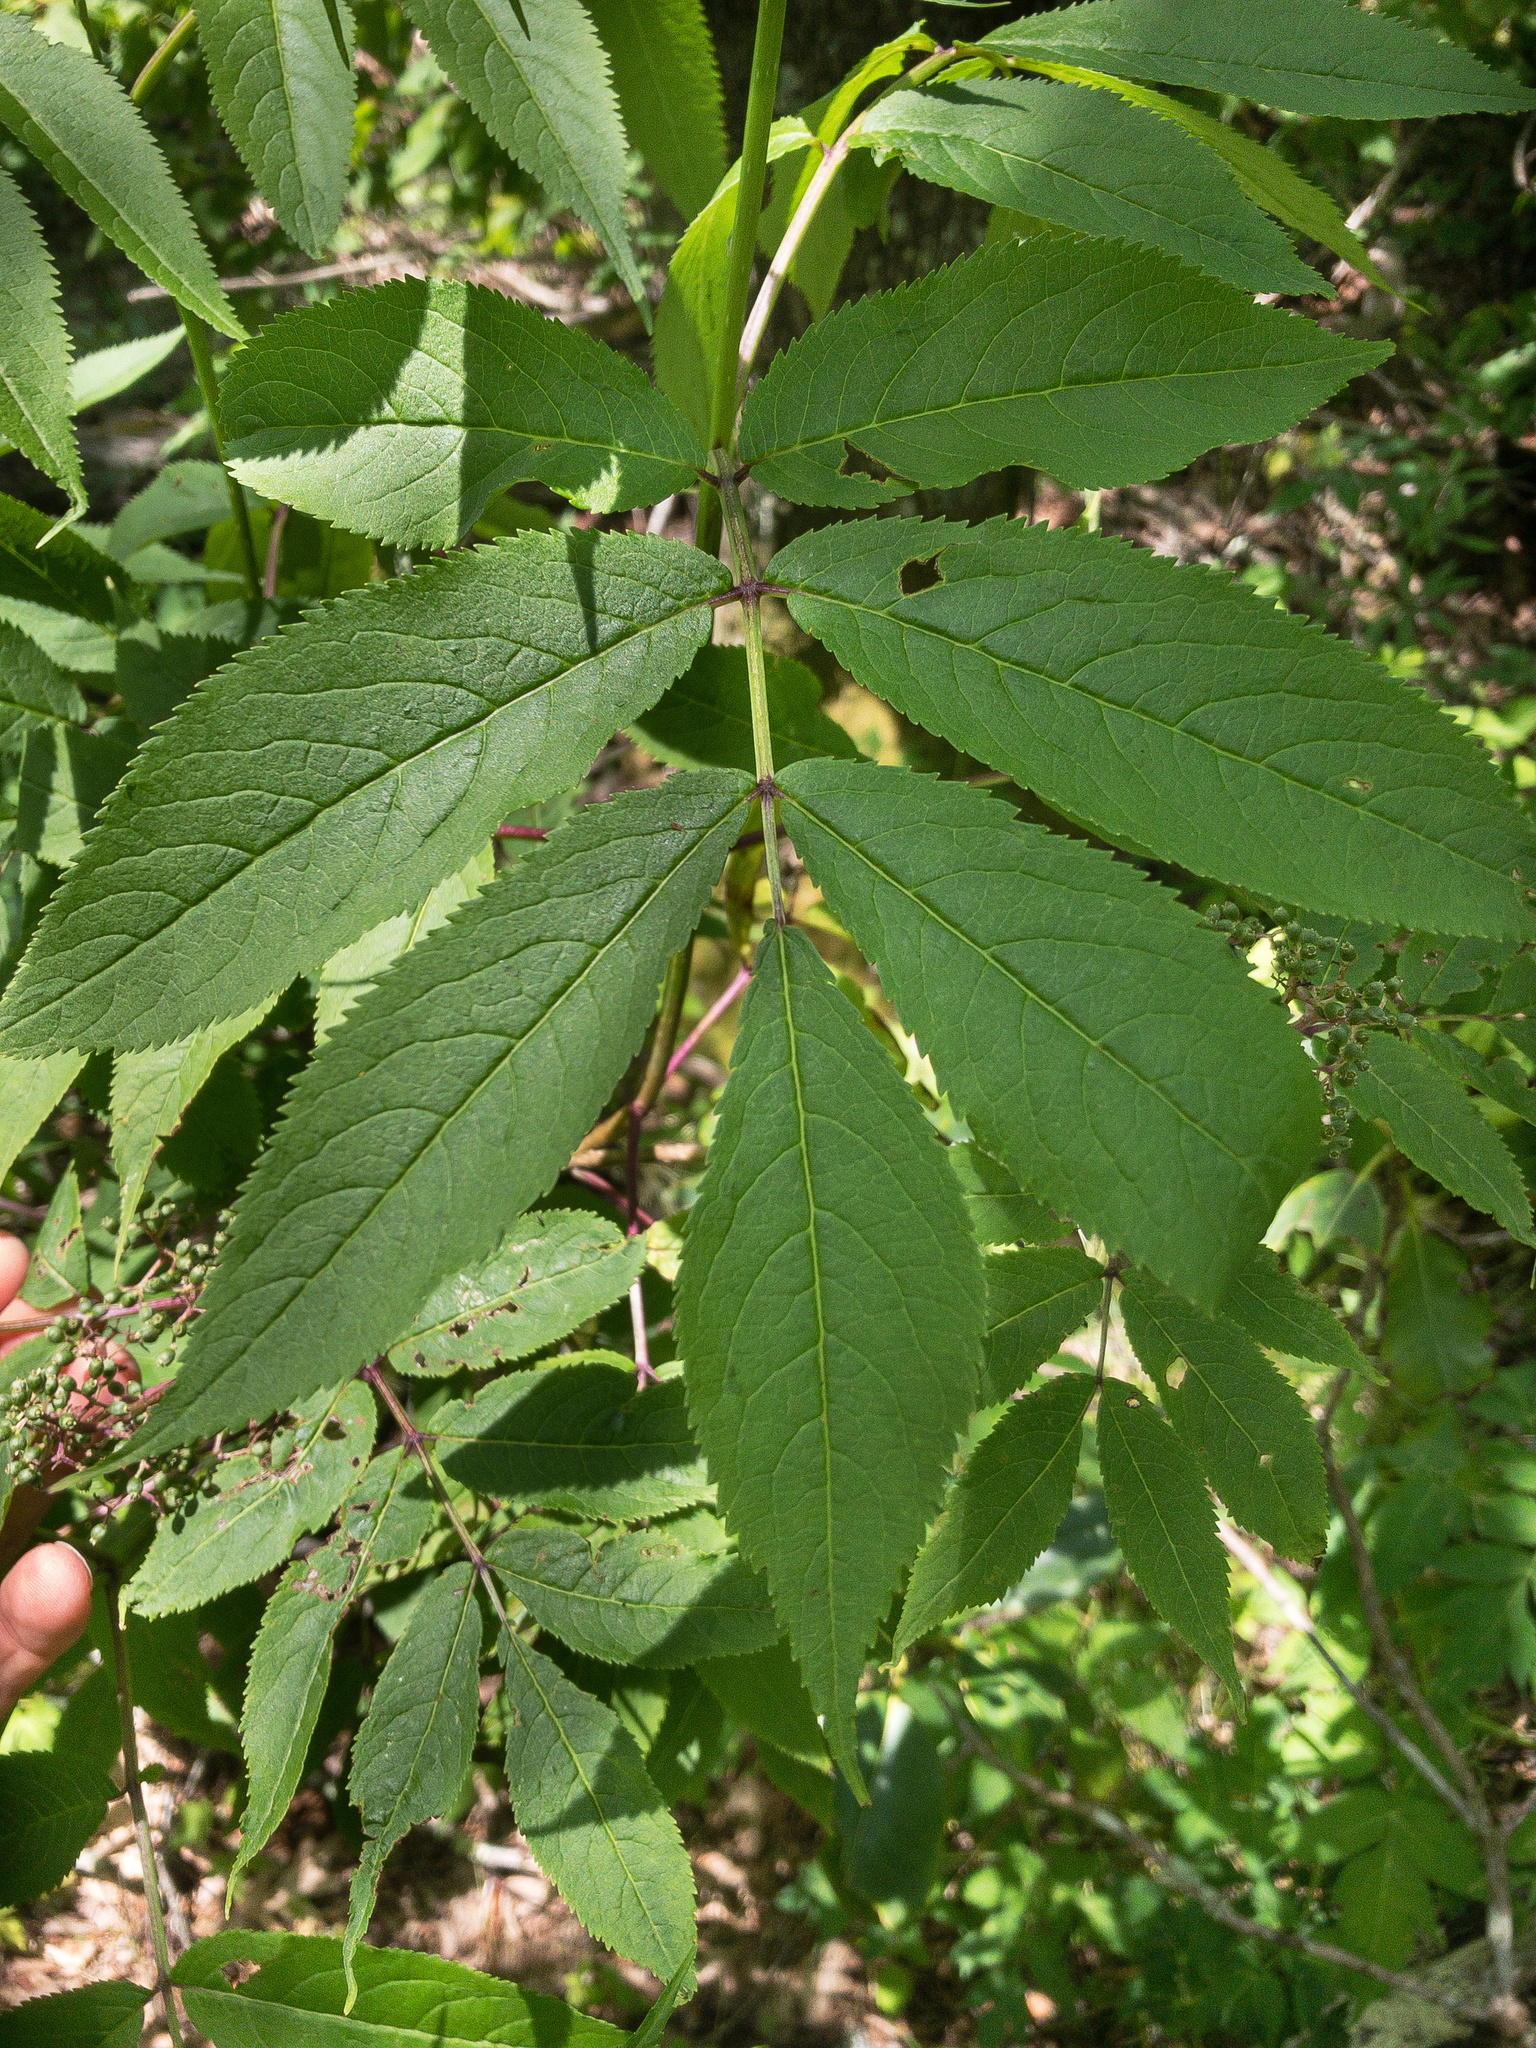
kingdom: Plantae
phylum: Tracheophyta
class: Magnoliopsida
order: Dipsacales
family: Viburnaceae
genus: Sambucus
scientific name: Sambucus racemosa
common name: Red-berried elder
